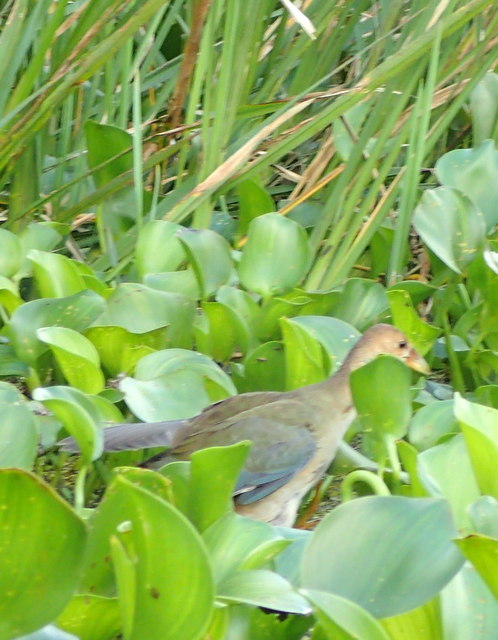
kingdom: Animalia
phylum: Chordata
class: Aves
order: Gruiformes
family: Rallidae
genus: Porphyrio
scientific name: Porphyrio martinica
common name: Purple gallinule
